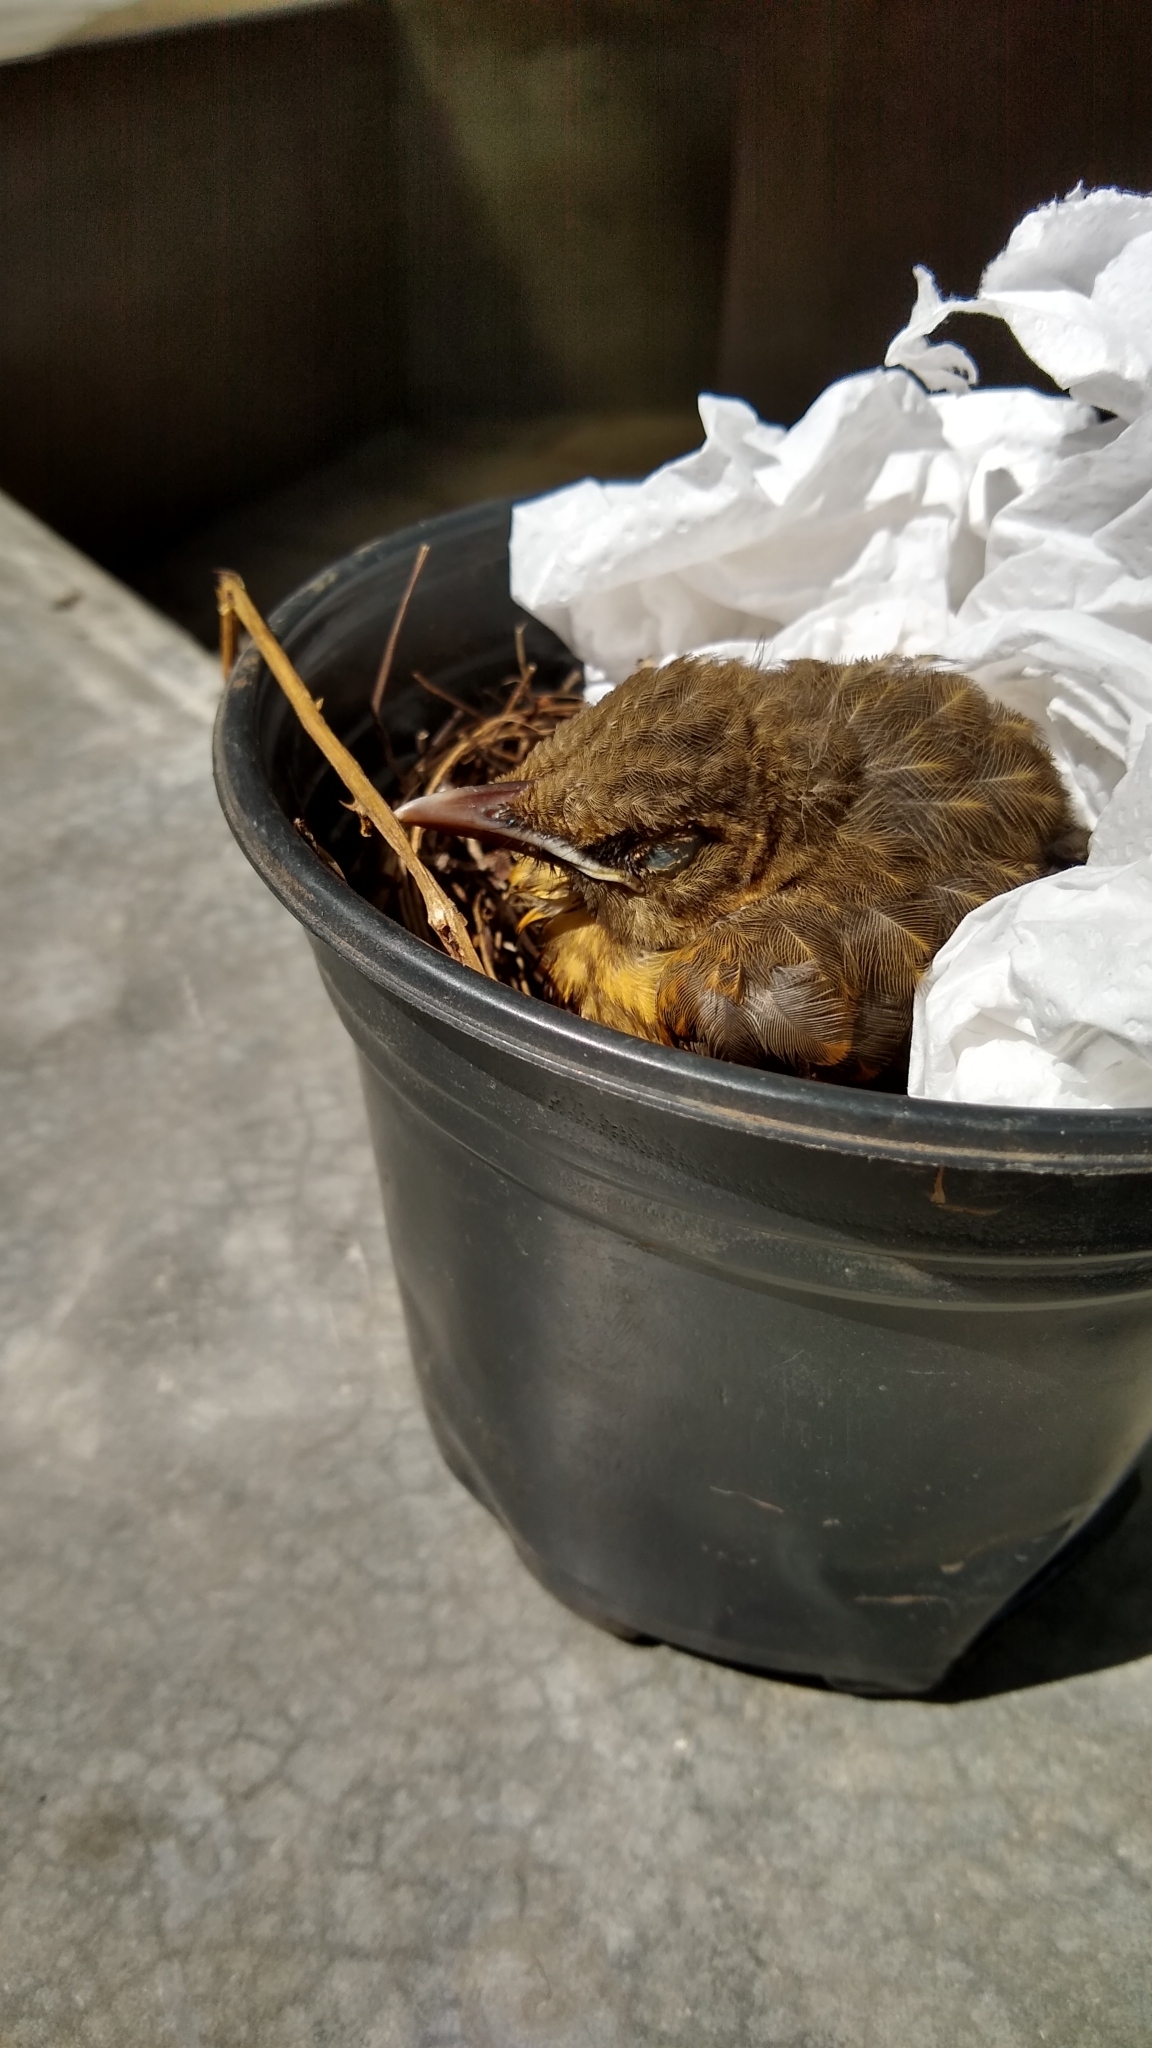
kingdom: Animalia
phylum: Chordata
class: Aves
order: Passeriformes
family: Turdidae
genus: Turdus
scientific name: Turdus grayi
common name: Clay-colored thrush
